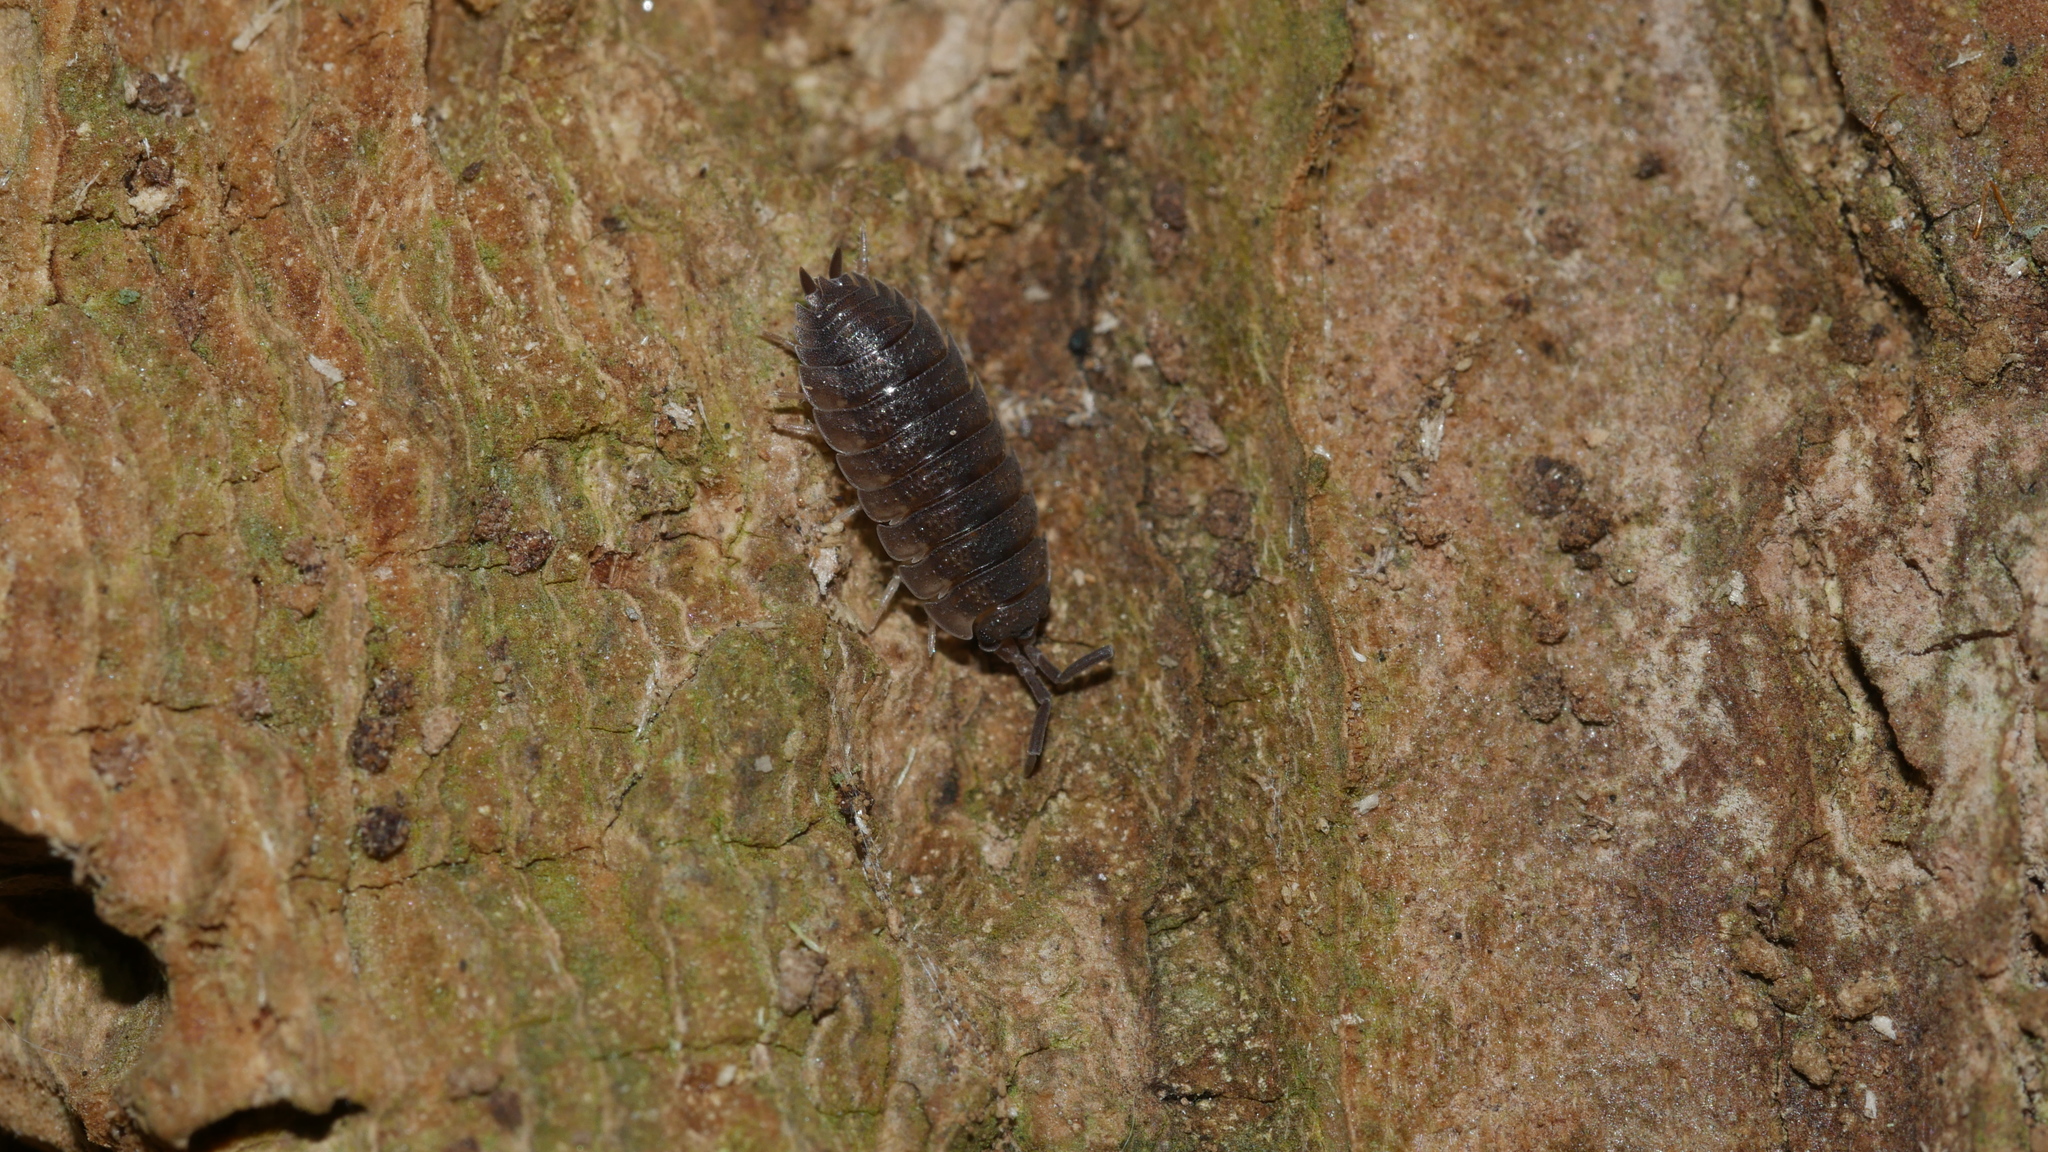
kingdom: Animalia
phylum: Arthropoda
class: Malacostraca
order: Isopoda
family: Porcellionidae
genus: Porcellio
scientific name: Porcellio scaber
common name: Common rough woodlouse
